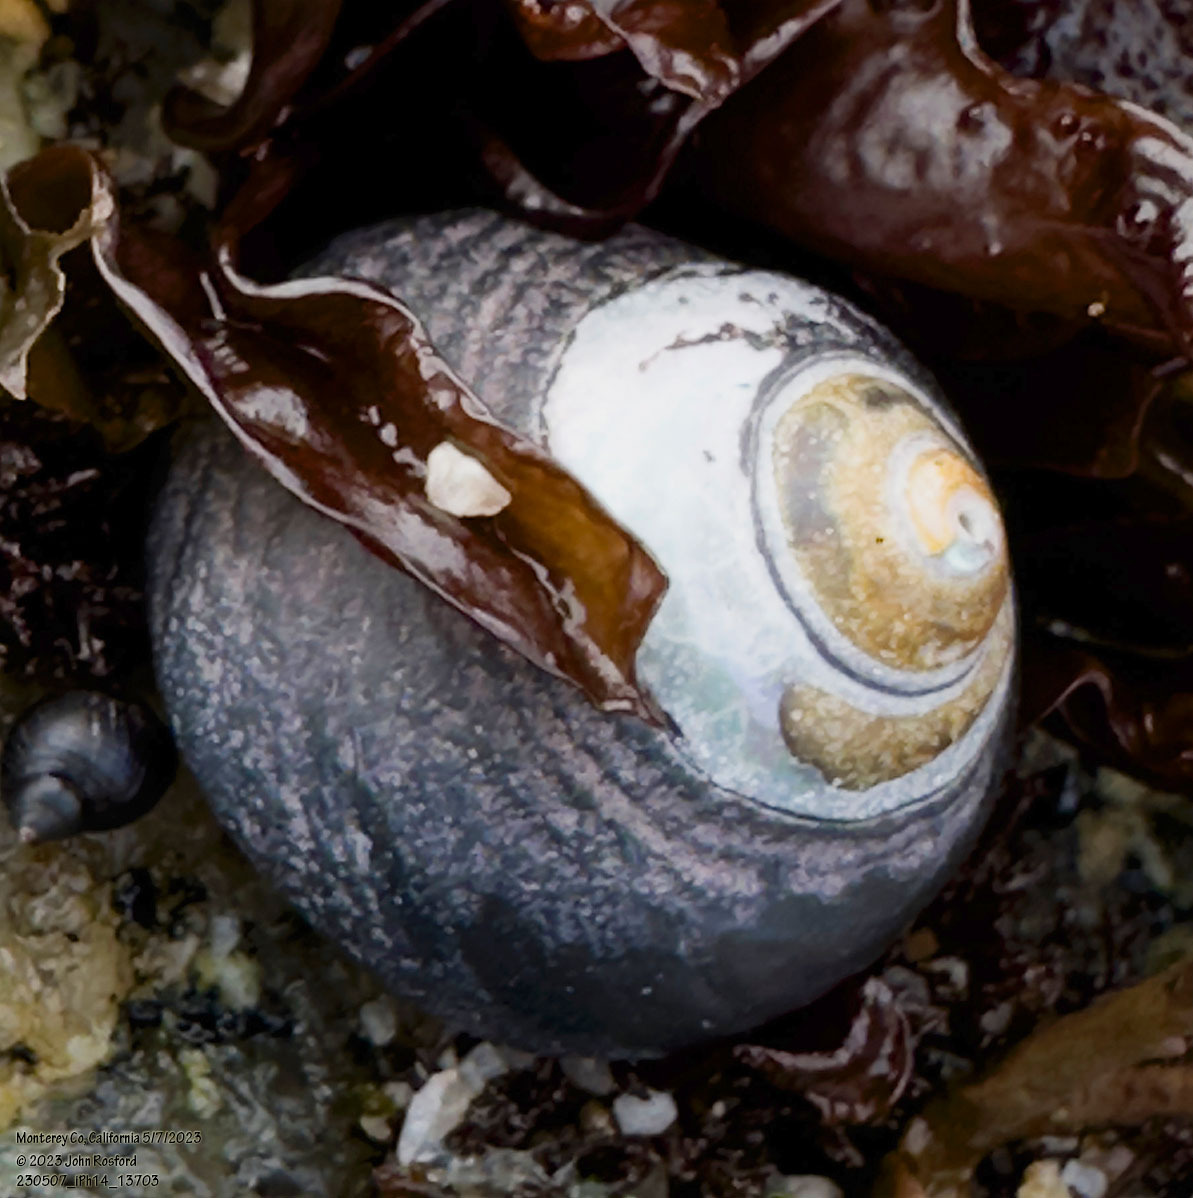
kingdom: Animalia
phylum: Mollusca
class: Gastropoda
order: Trochida
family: Tegulidae
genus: Tegula
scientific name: Tegula funebralis
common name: Black tegula
